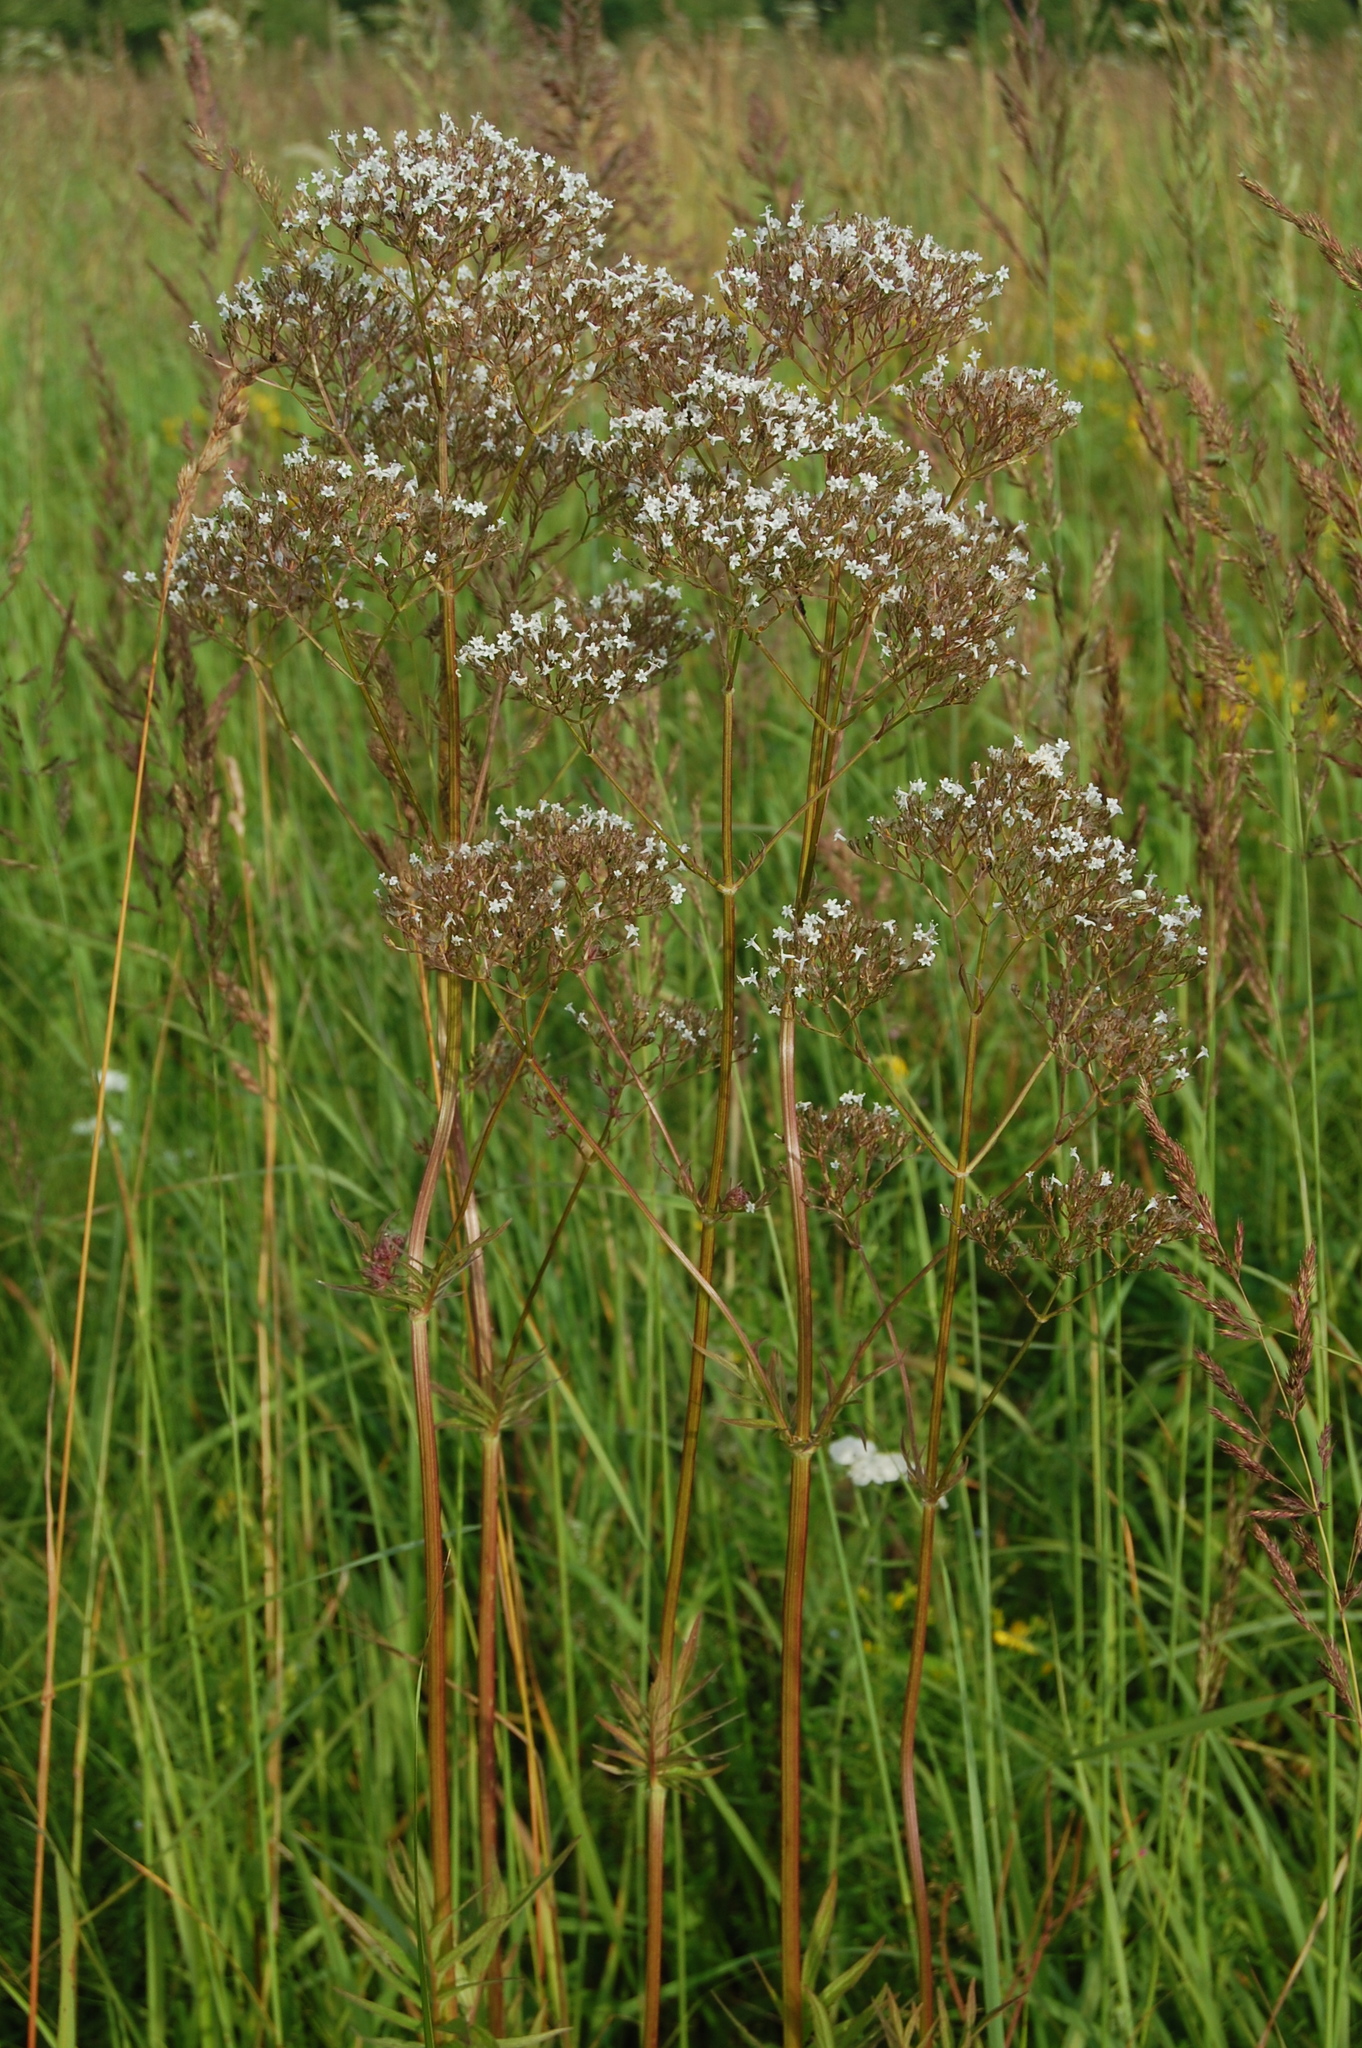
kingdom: Plantae
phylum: Tracheophyta
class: Magnoliopsida
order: Dipsacales
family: Caprifoliaceae
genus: Valeriana
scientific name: Valeriana officinalis
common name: Common valerian
